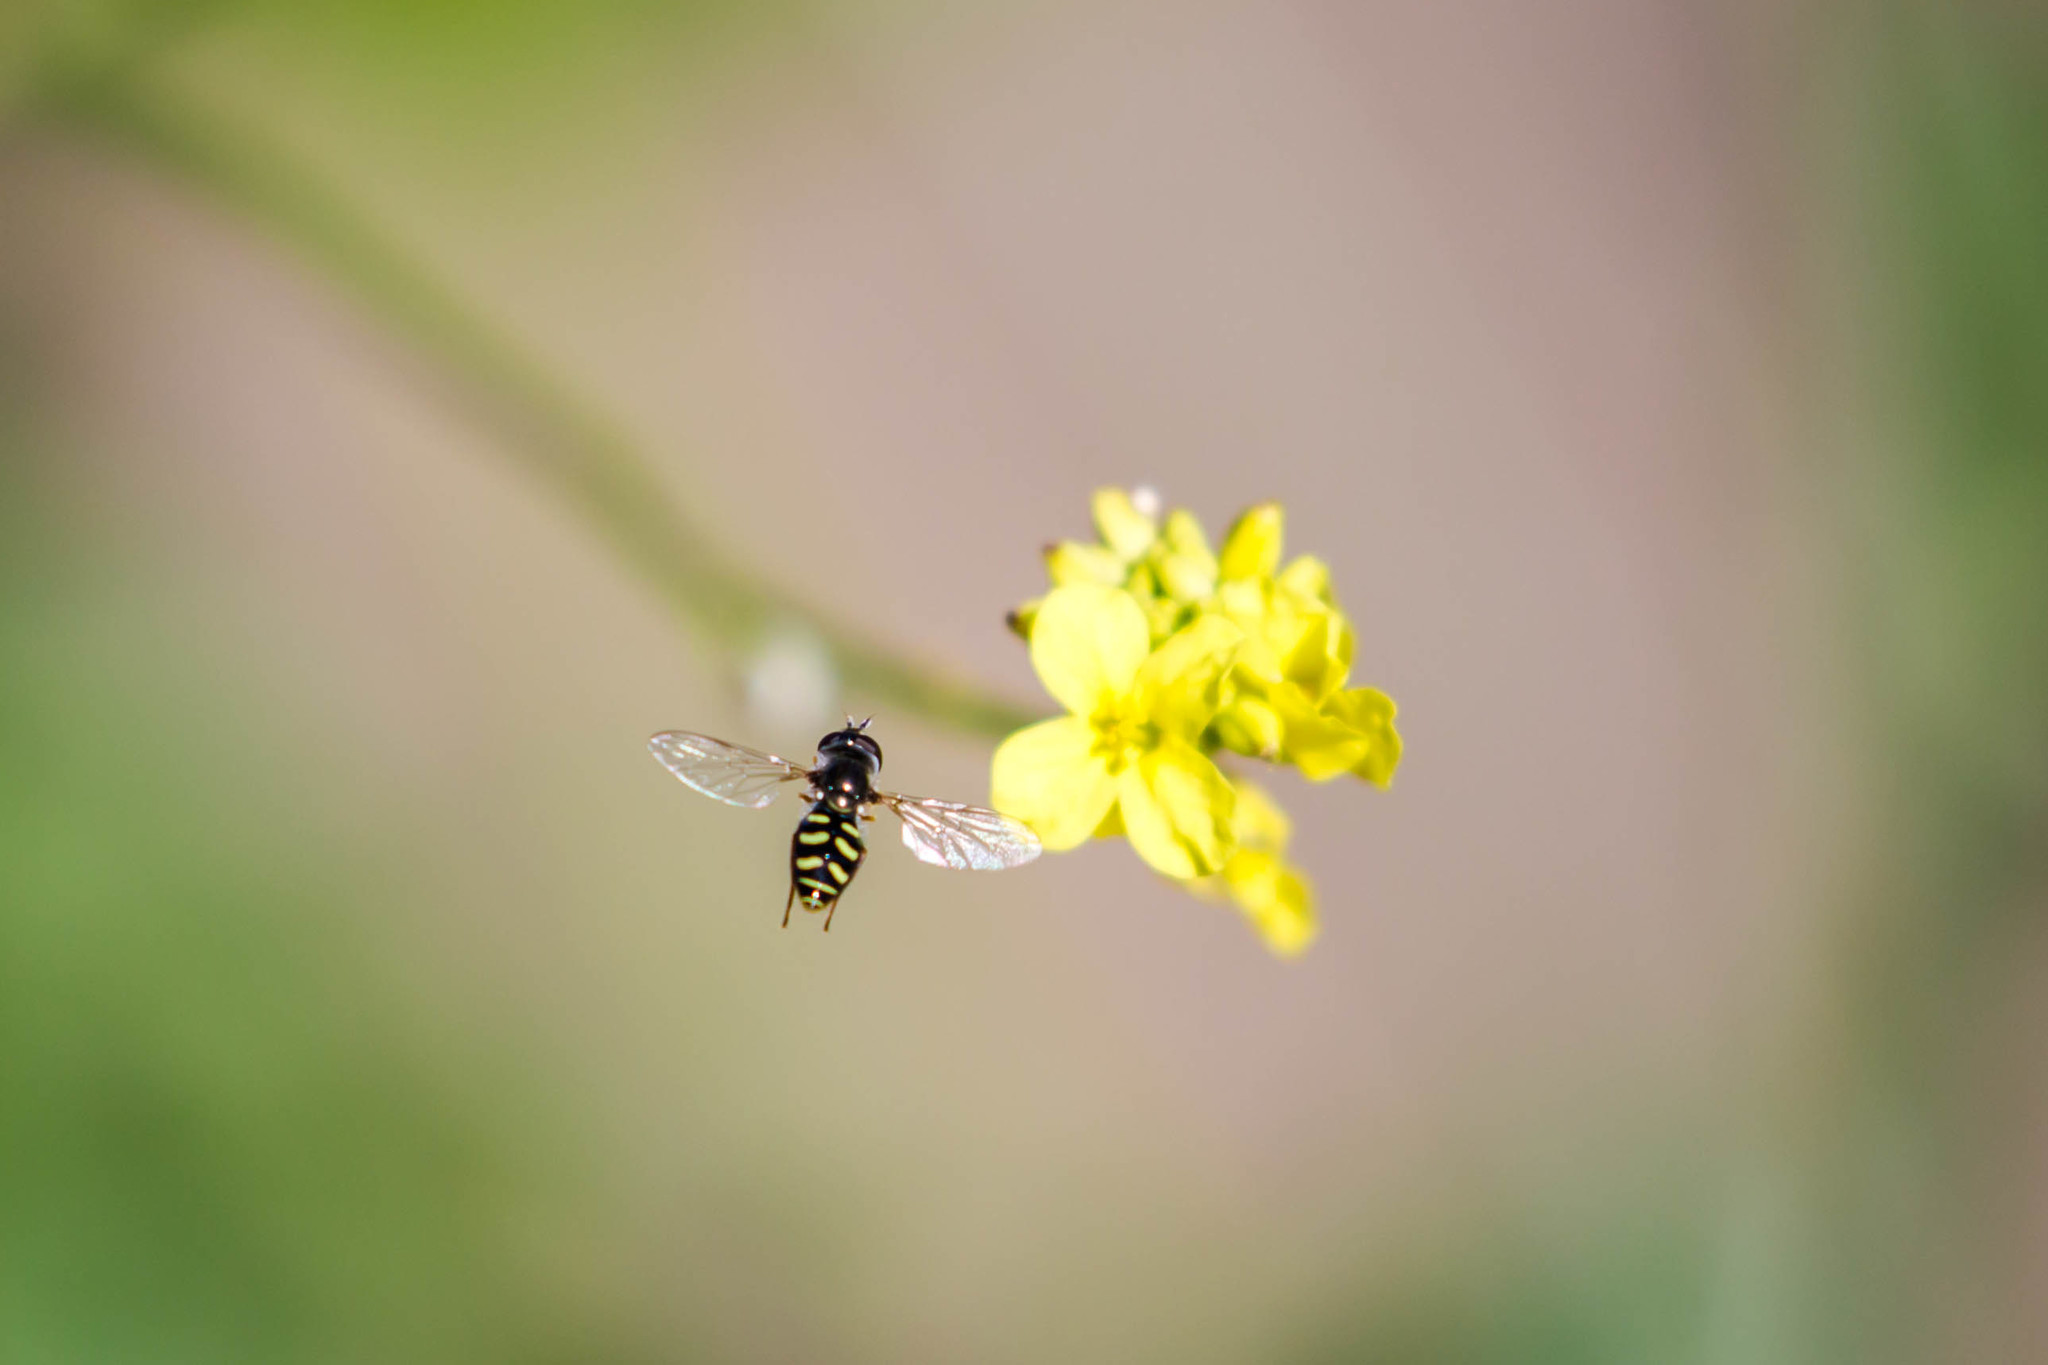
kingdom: Animalia
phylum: Arthropoda
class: Insecta
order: Diptera
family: Syrphidae
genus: Eupeodes
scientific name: Eupeodes volucris
